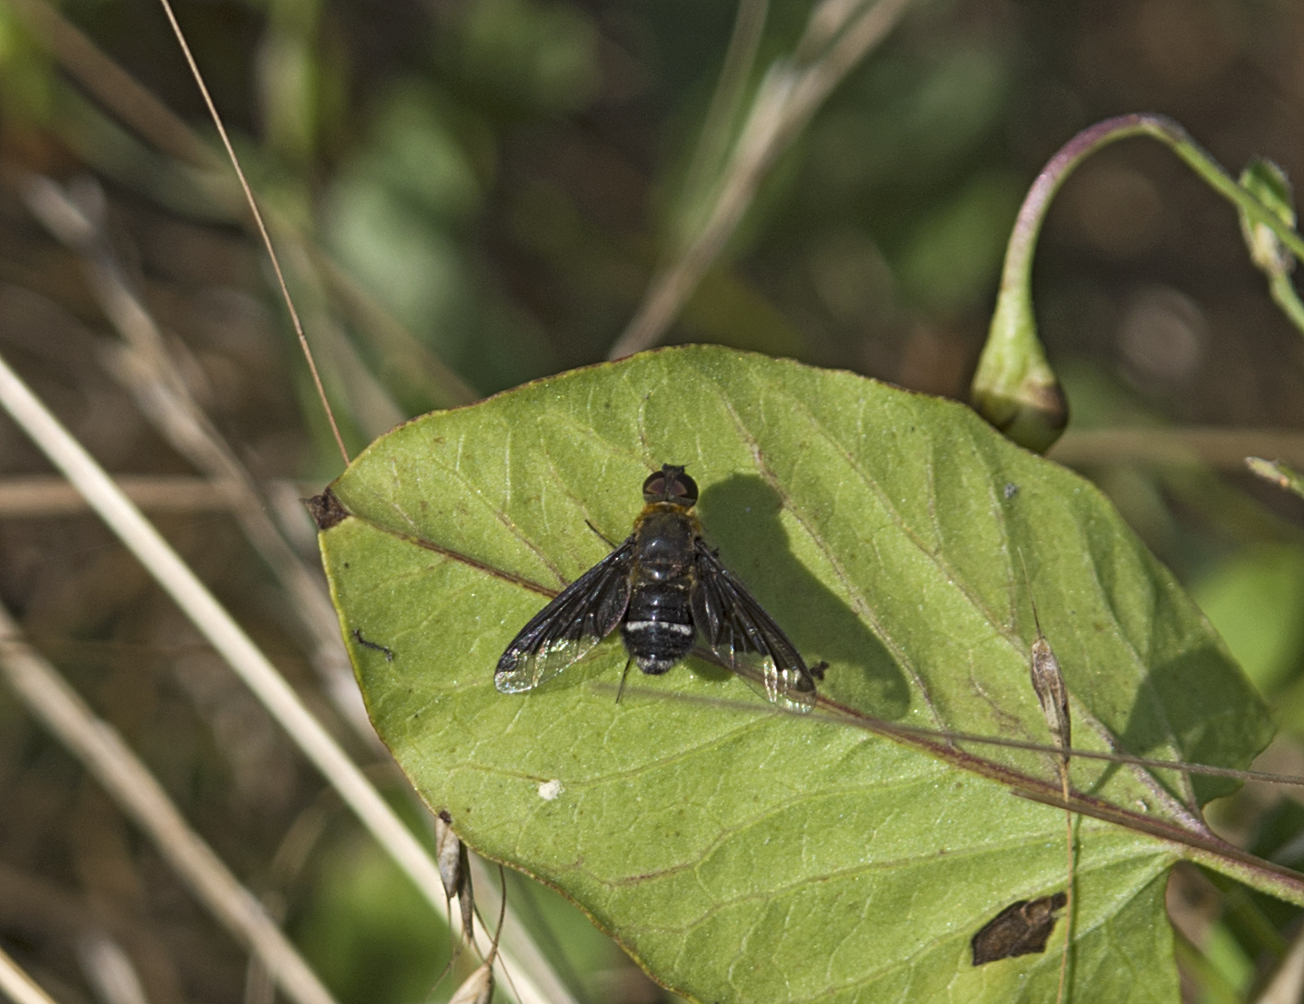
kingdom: Animalia
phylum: Arthropoda
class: Insecta
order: Diptera
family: Bombyliidae
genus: Hemipenthes
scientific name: Hemipenthes velutina
